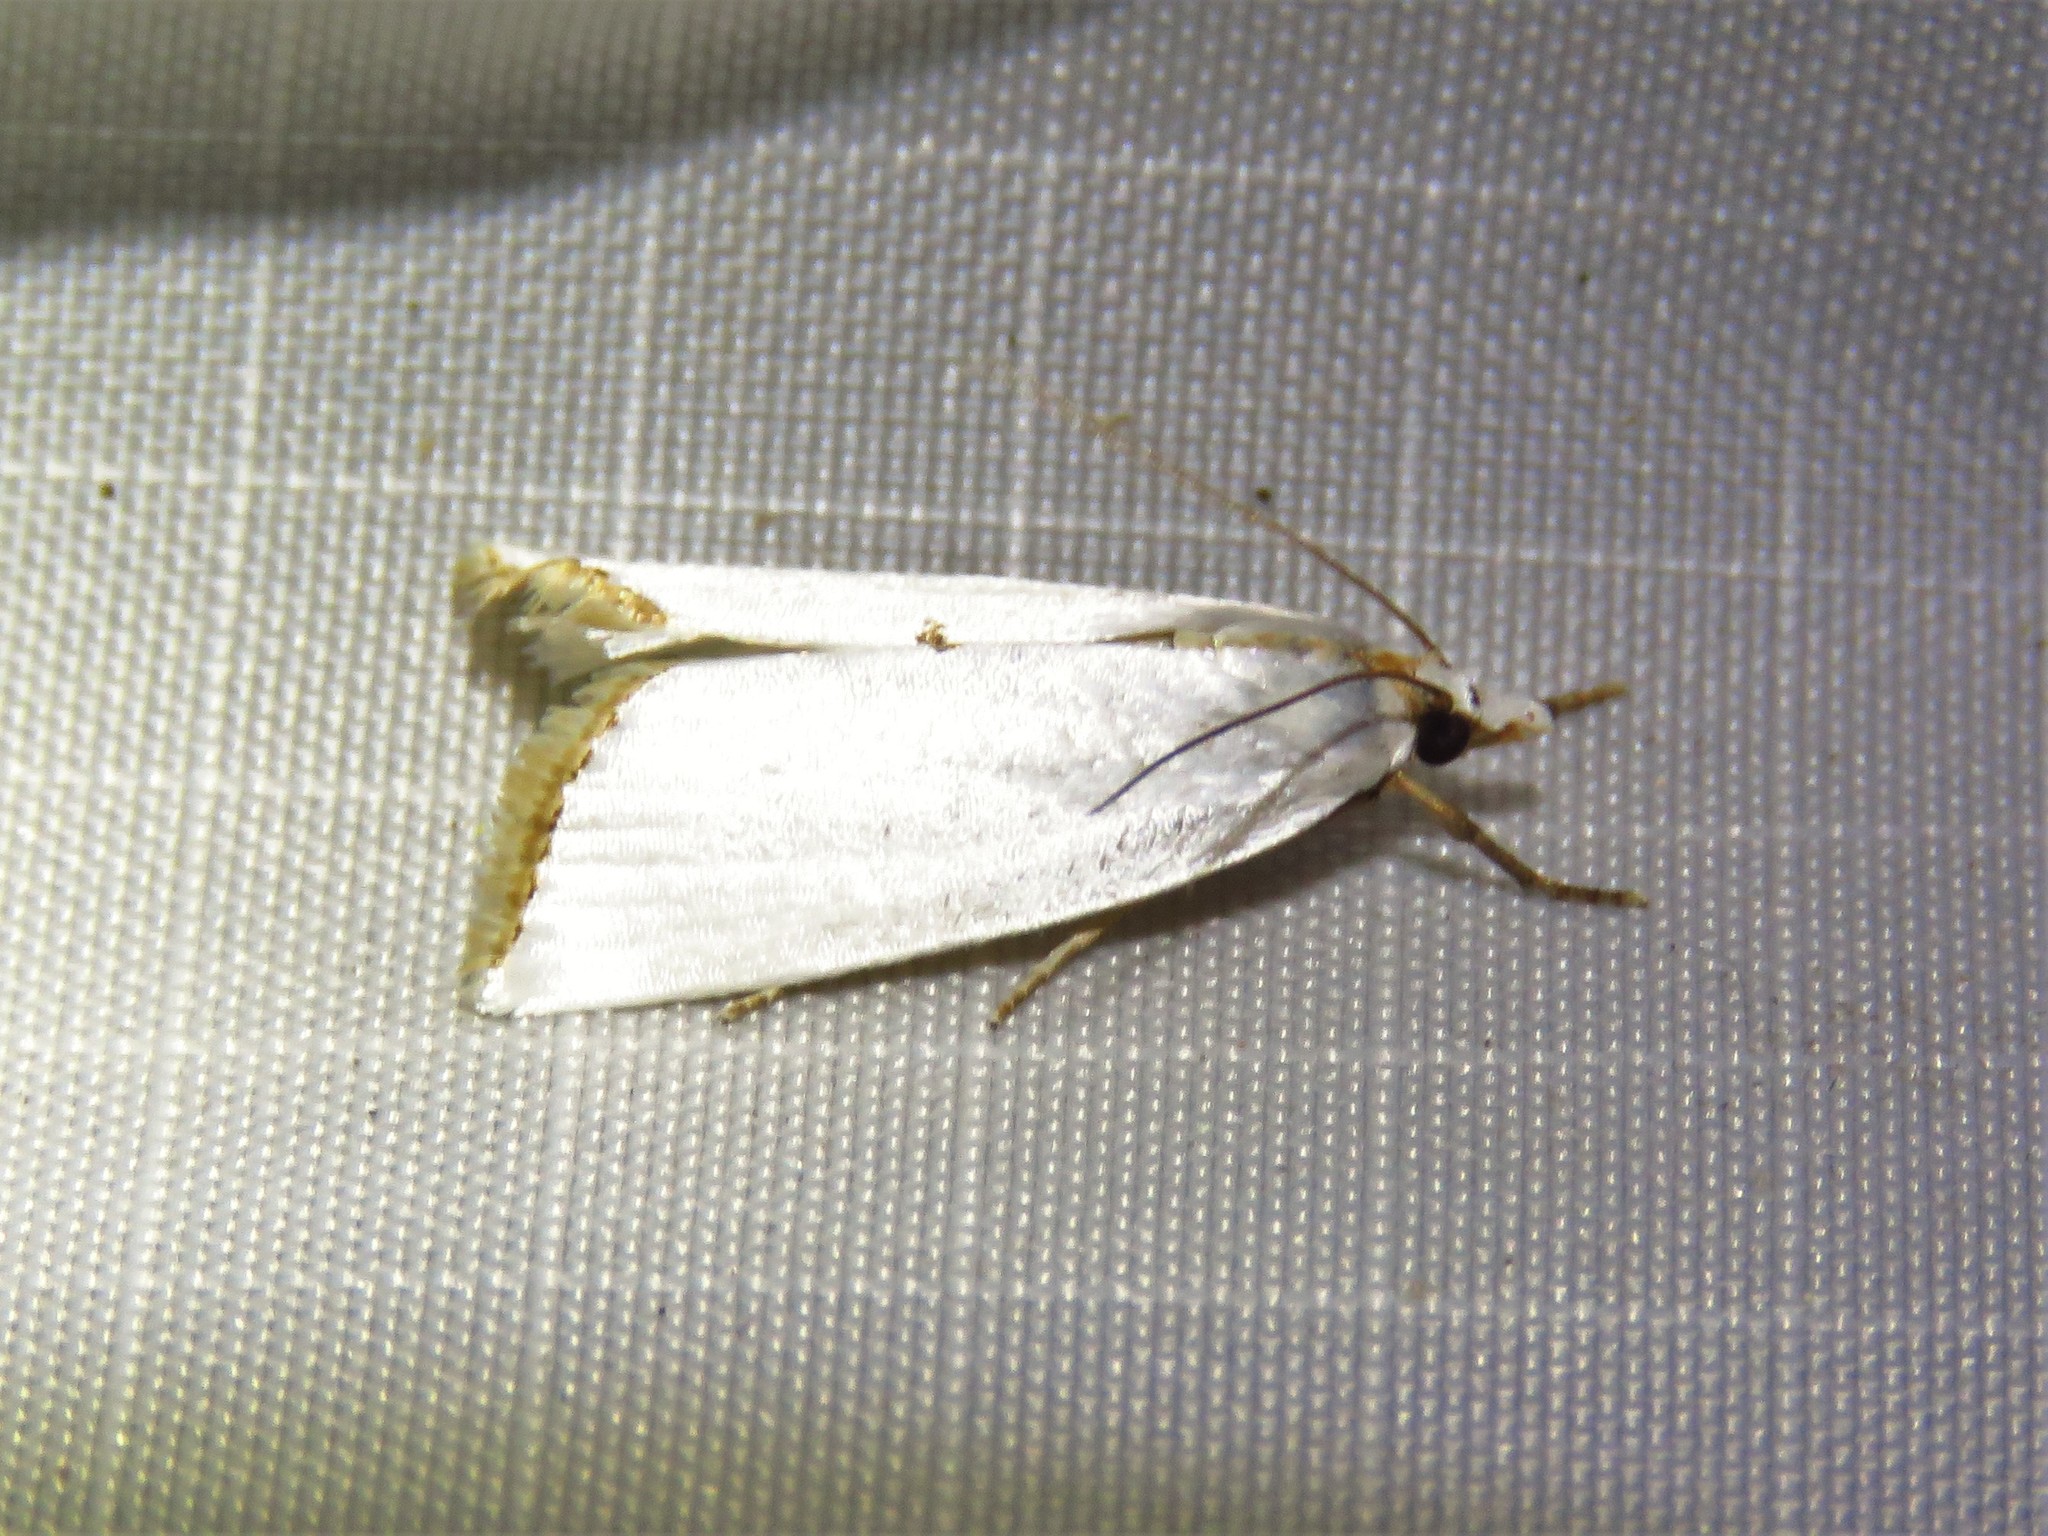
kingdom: Animalia
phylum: Arthropoda
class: Insecta
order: Lepidoptera
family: Crambidae
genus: Argyria
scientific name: Argyria nivalis
